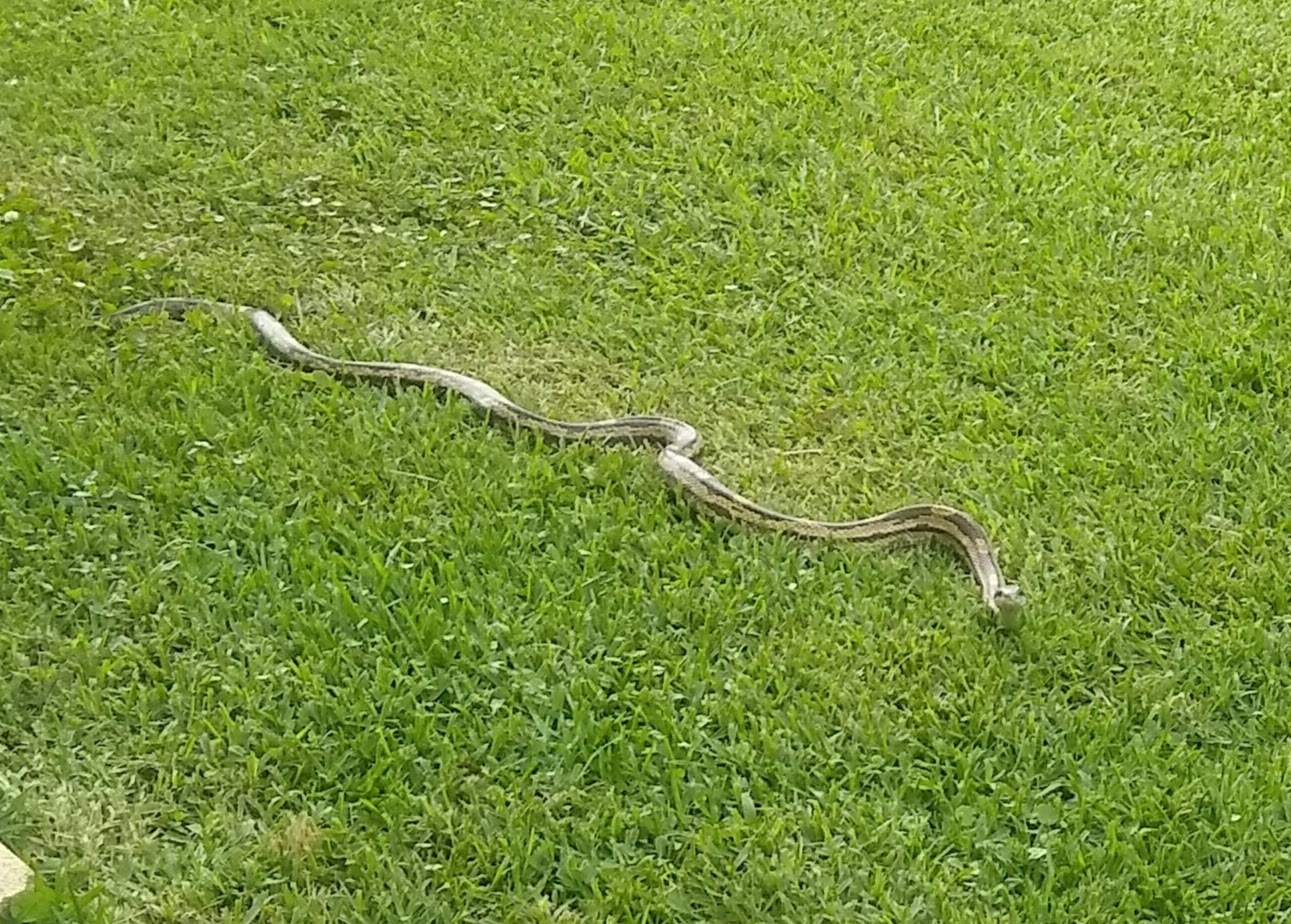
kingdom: Animalia
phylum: Chordata
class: Squamata
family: Colubridae
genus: Pantherophis
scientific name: Pantherophis spiloides
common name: Gray rat snake
